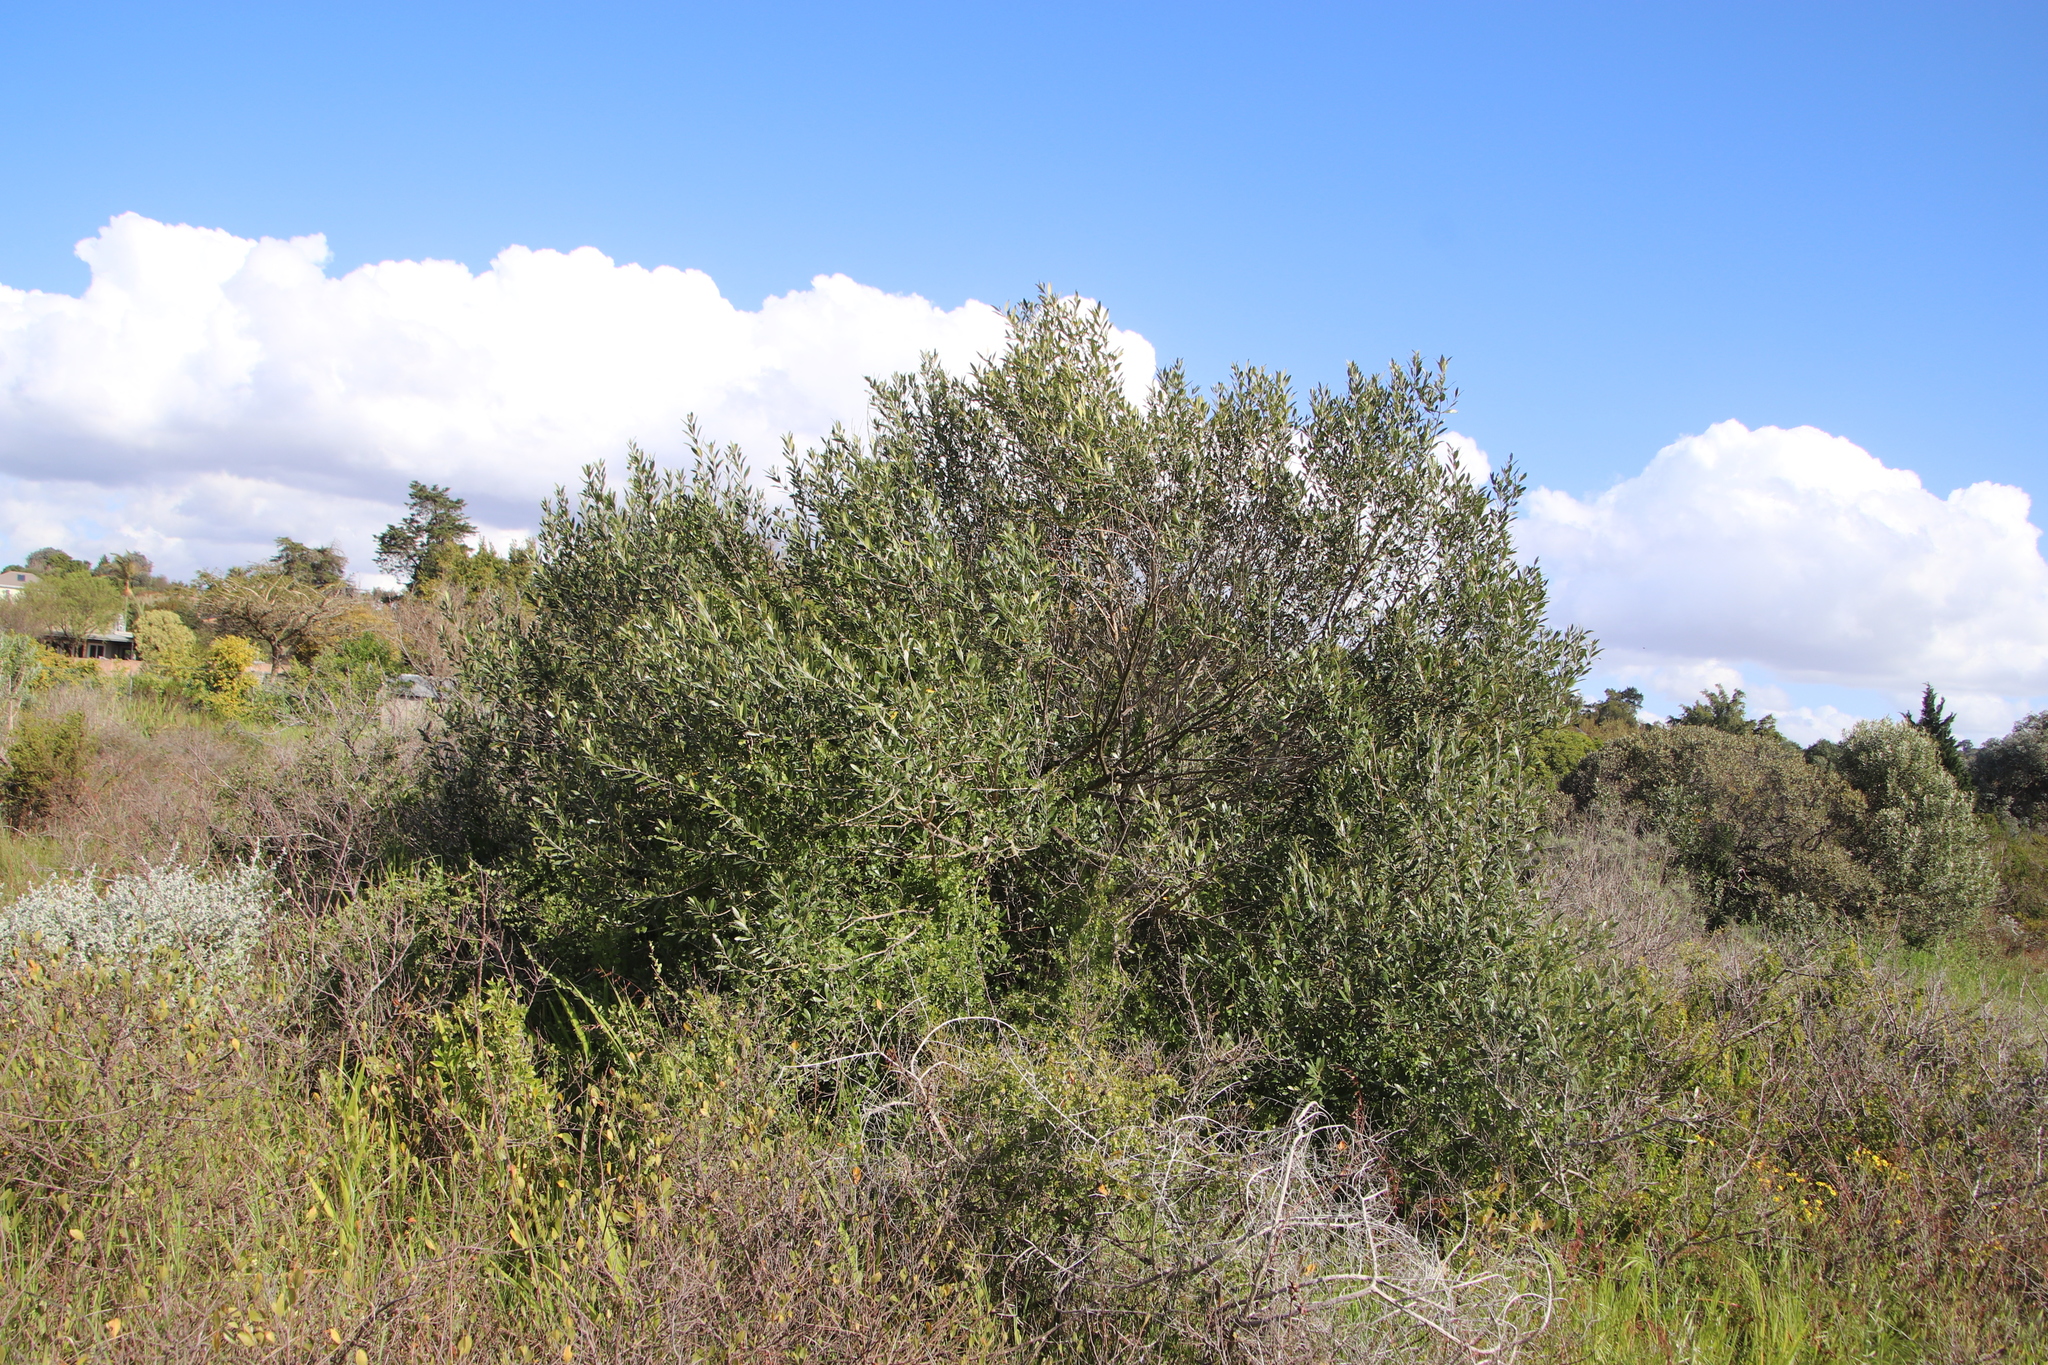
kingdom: Plantae
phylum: Tracheophyta
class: Magnoliopsida
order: Lamiales
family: Oleaceae
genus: Olea
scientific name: Olea europaea
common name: Olive
